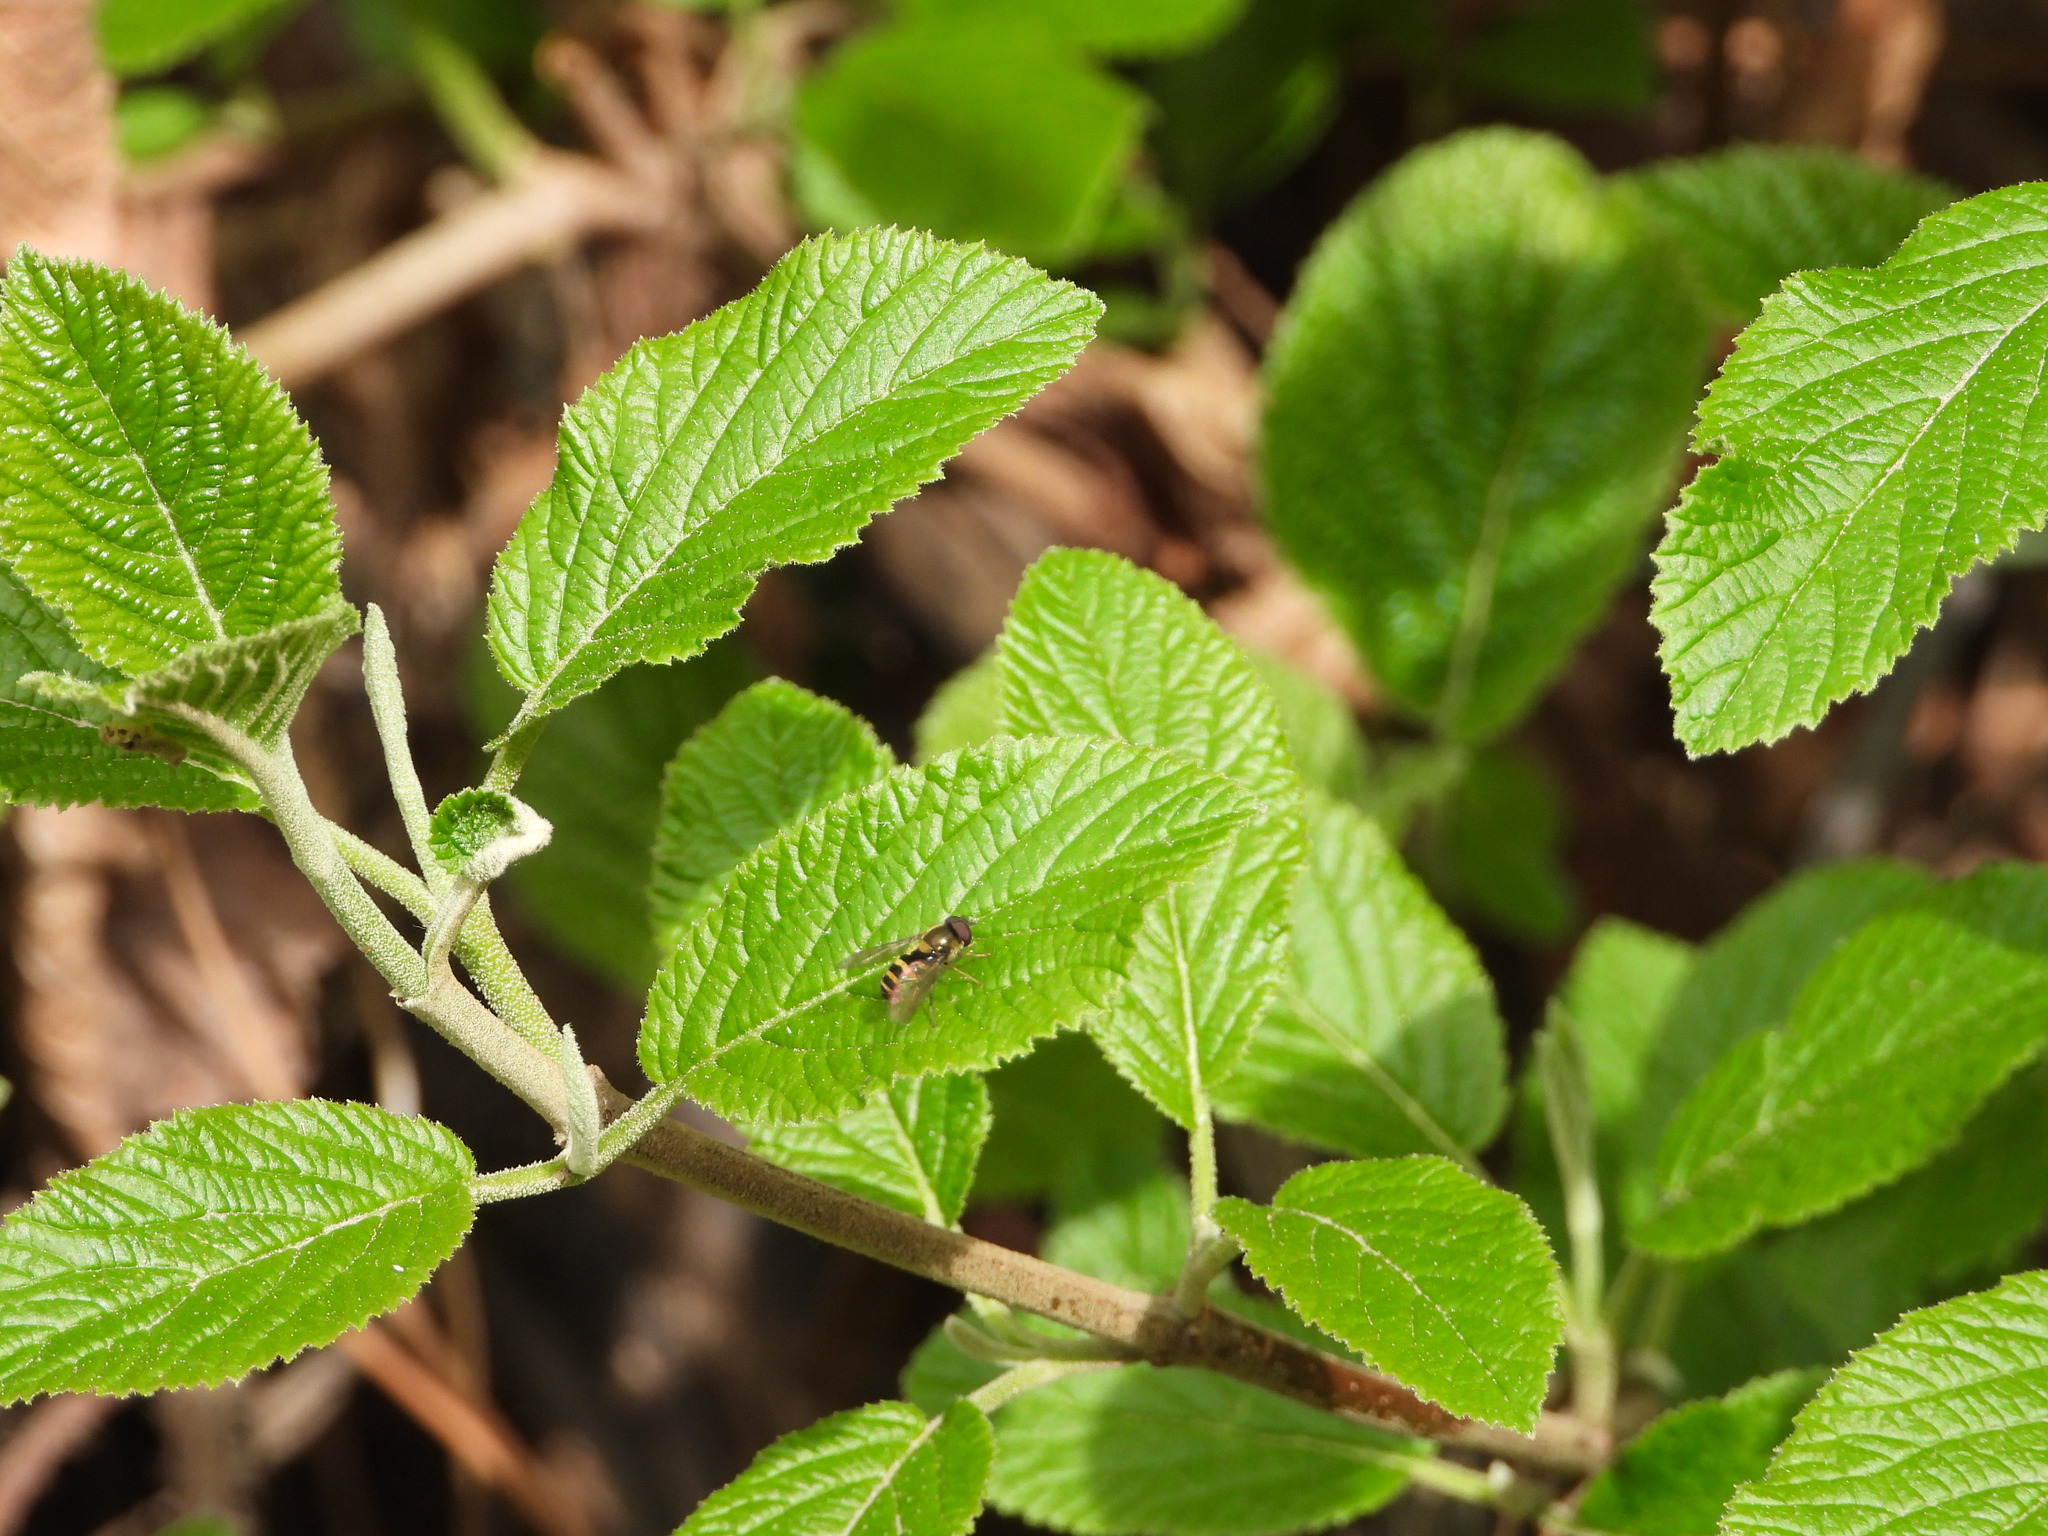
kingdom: Animalia
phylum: Arthropoda
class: Insecta
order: Diptera
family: Syrphidae
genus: Syrphus
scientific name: Syrphus
